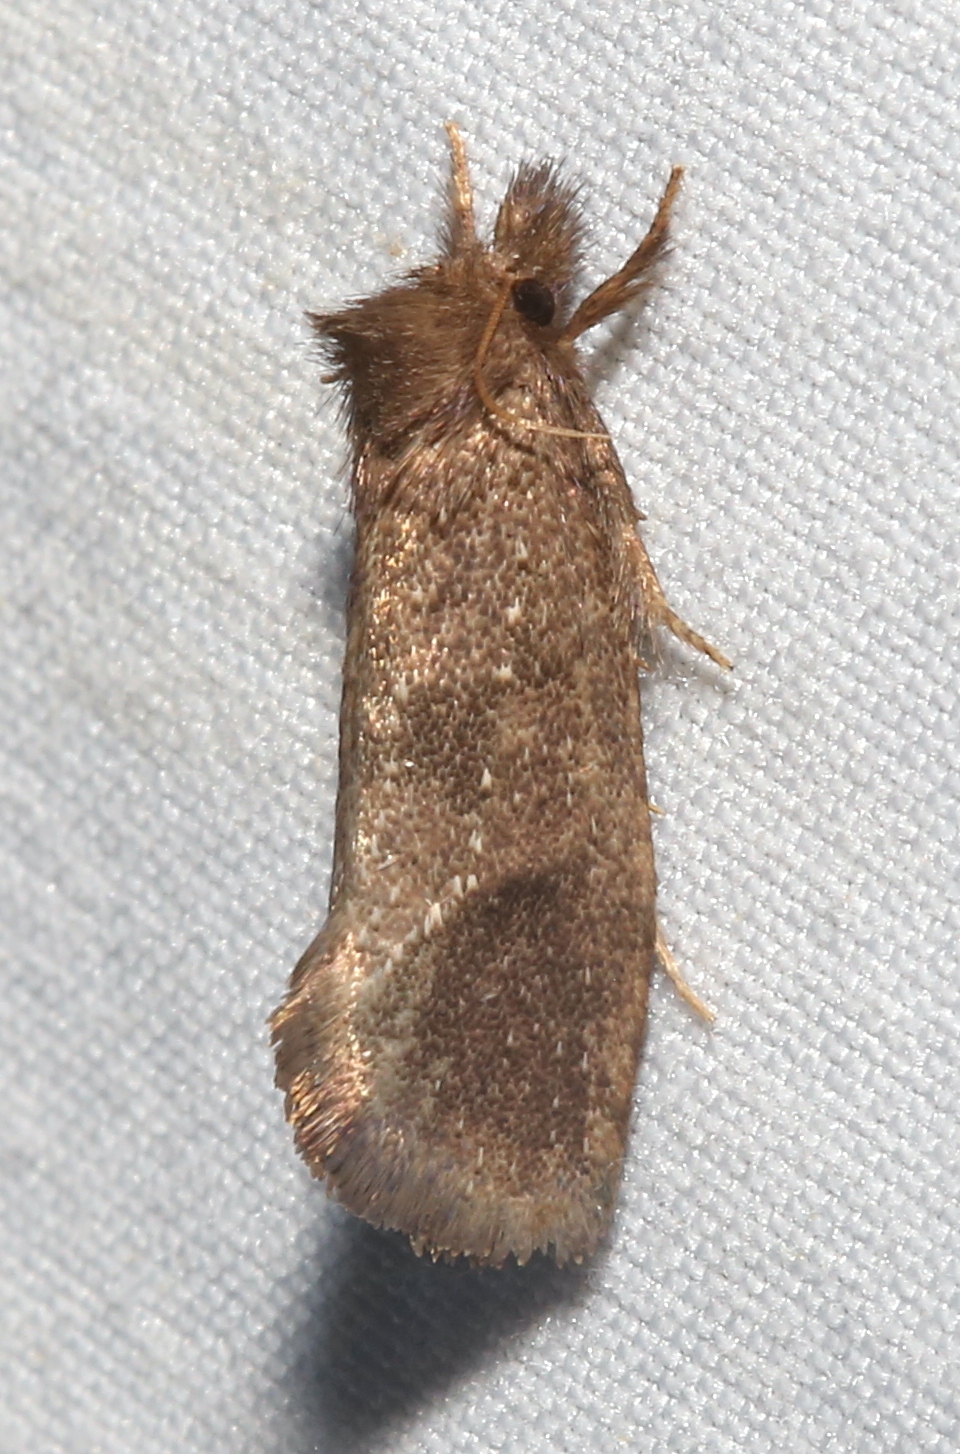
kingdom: Animalia
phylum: Arthropoda
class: Insecta
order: Lepidoptera
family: Tineidae
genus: Acrolophus
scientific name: Acrolophus texanella
